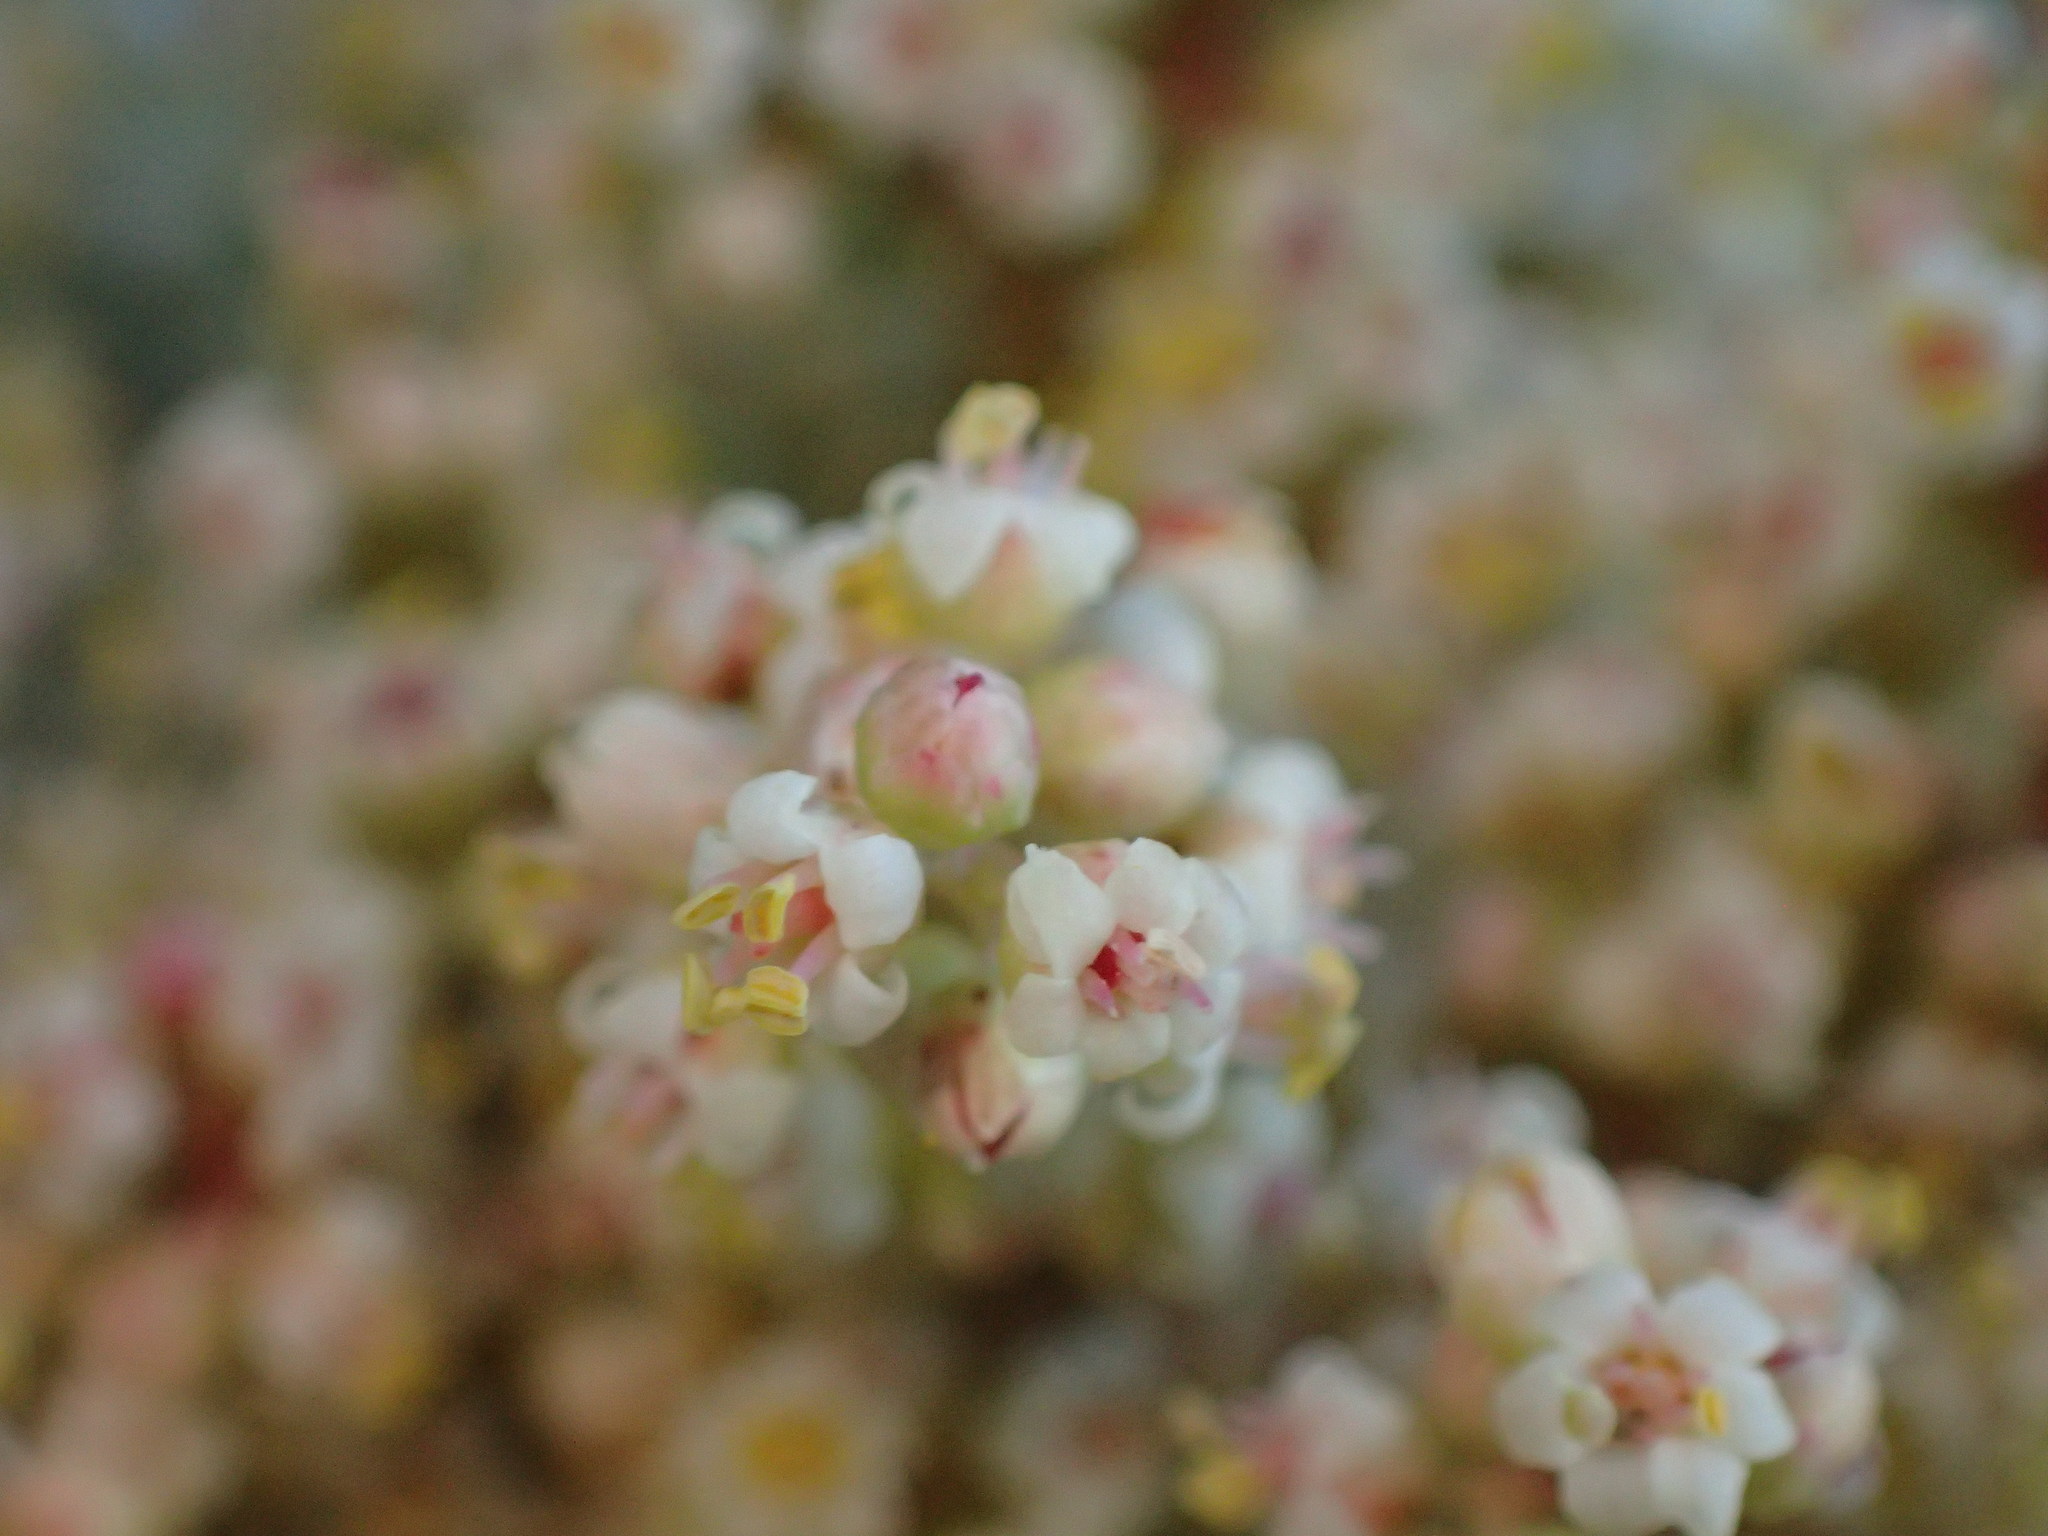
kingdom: Plantae
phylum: Tracheophyta
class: Magnoliopsida
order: Sapindales
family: Anacardiaceae
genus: Malosma
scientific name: Malosma laurina
